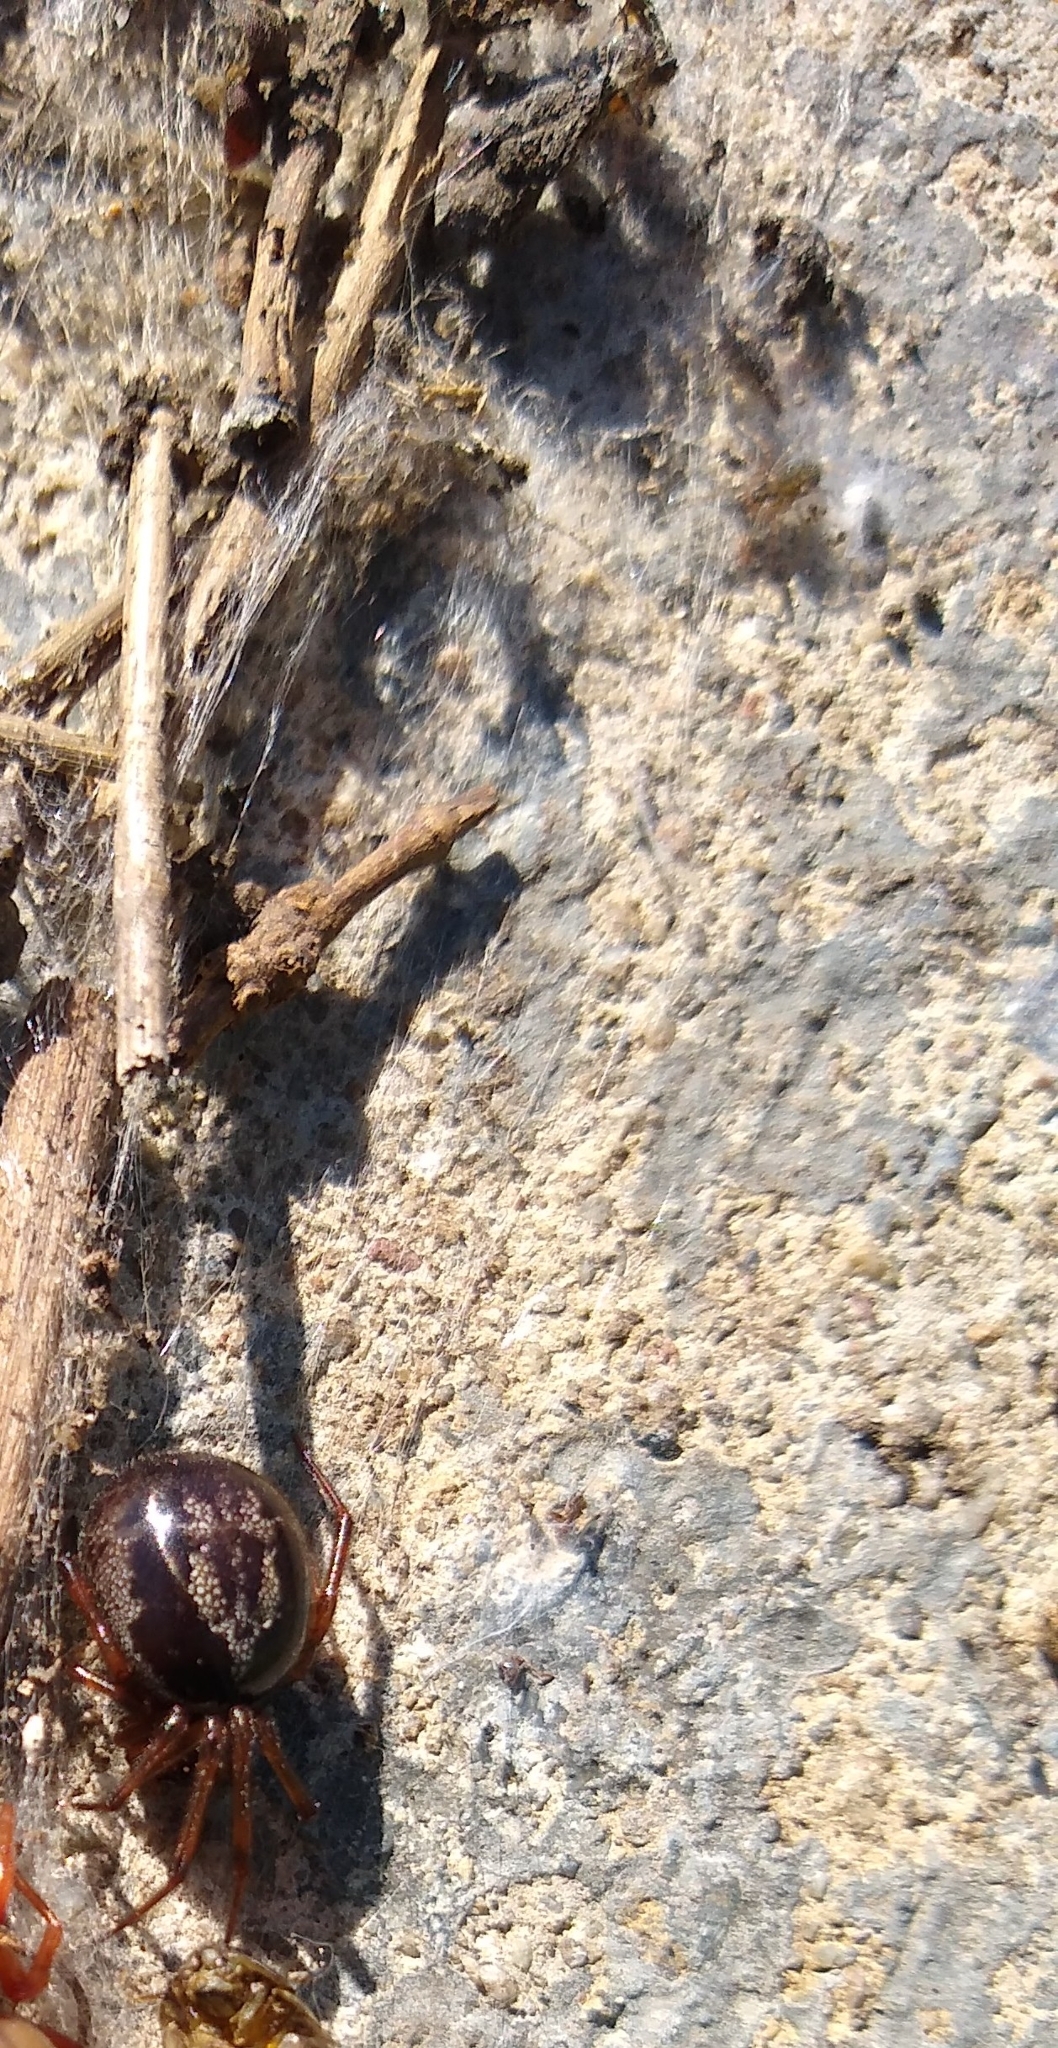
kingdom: Animalia
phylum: Arthropoda
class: Arachnida
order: Araneae
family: Theridiidae
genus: Steatoda
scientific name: Steatoda nobilis
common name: Cobweb weaver
